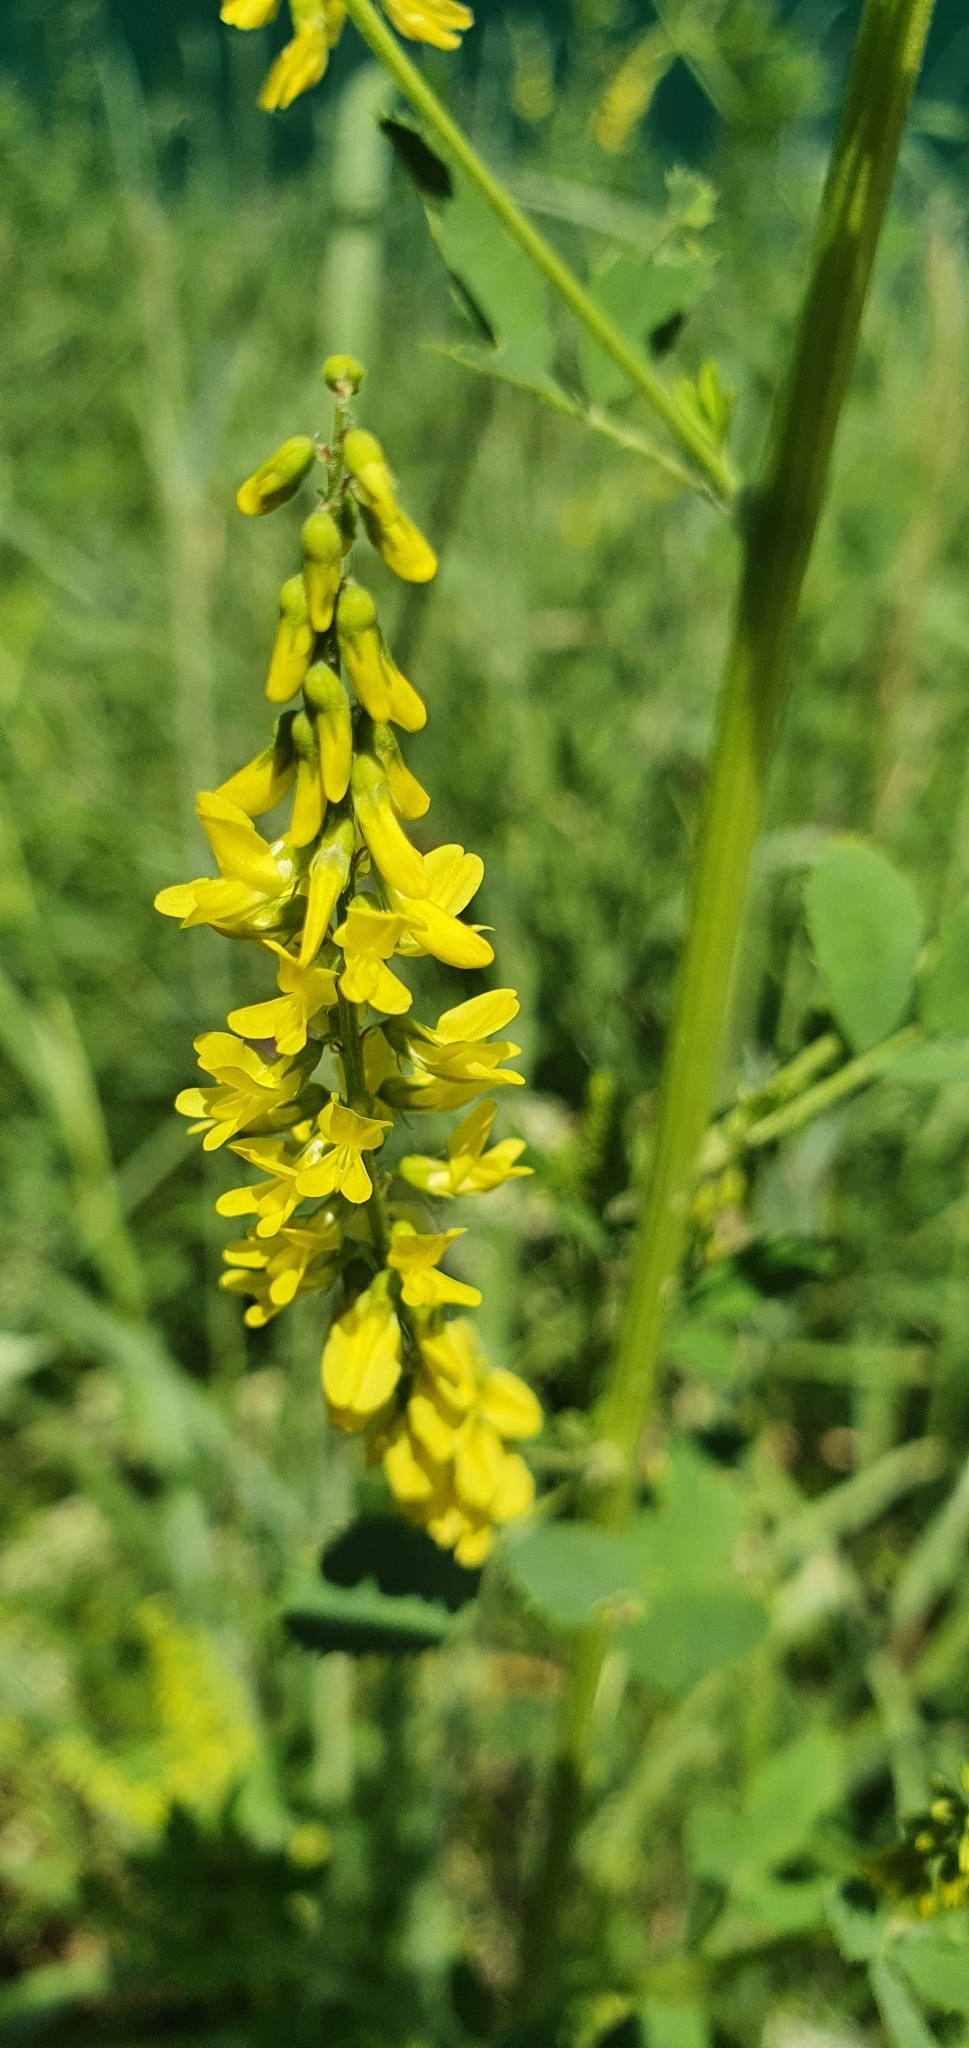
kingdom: Plantae
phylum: Tracheophyta
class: Magnoliopsida
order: Fabales
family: Fabaceae
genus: Melilotus
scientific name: Melilotus officinalis
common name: Sweetclover
